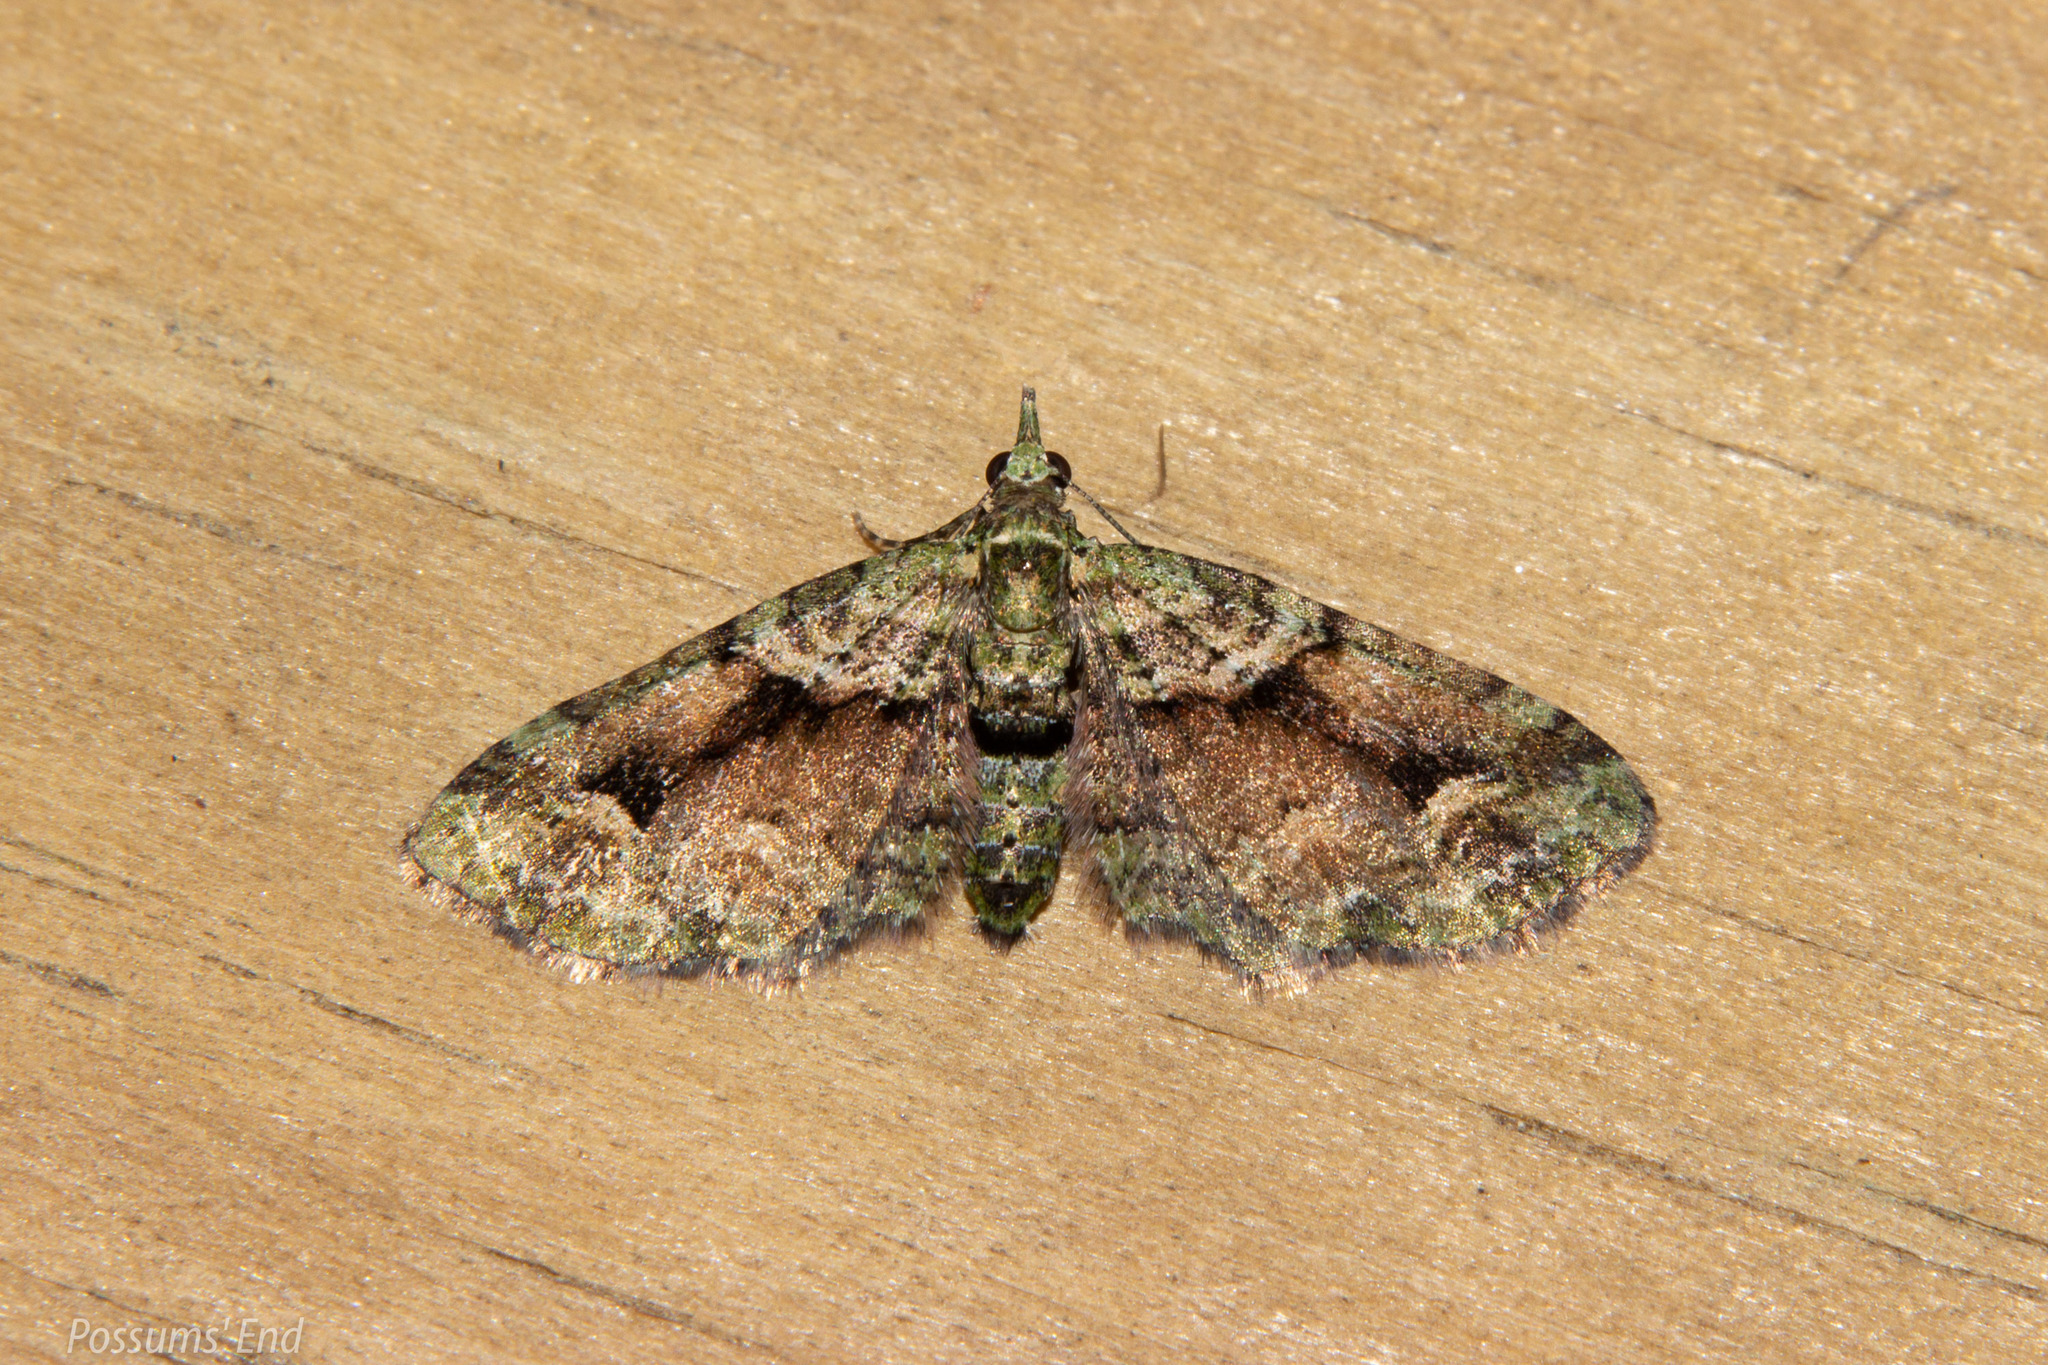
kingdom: Animalia
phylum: Arthropoda
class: Insecta
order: Lepidoptera
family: Geometridae
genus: Pasiphila
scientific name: Pasiphila suffusa
